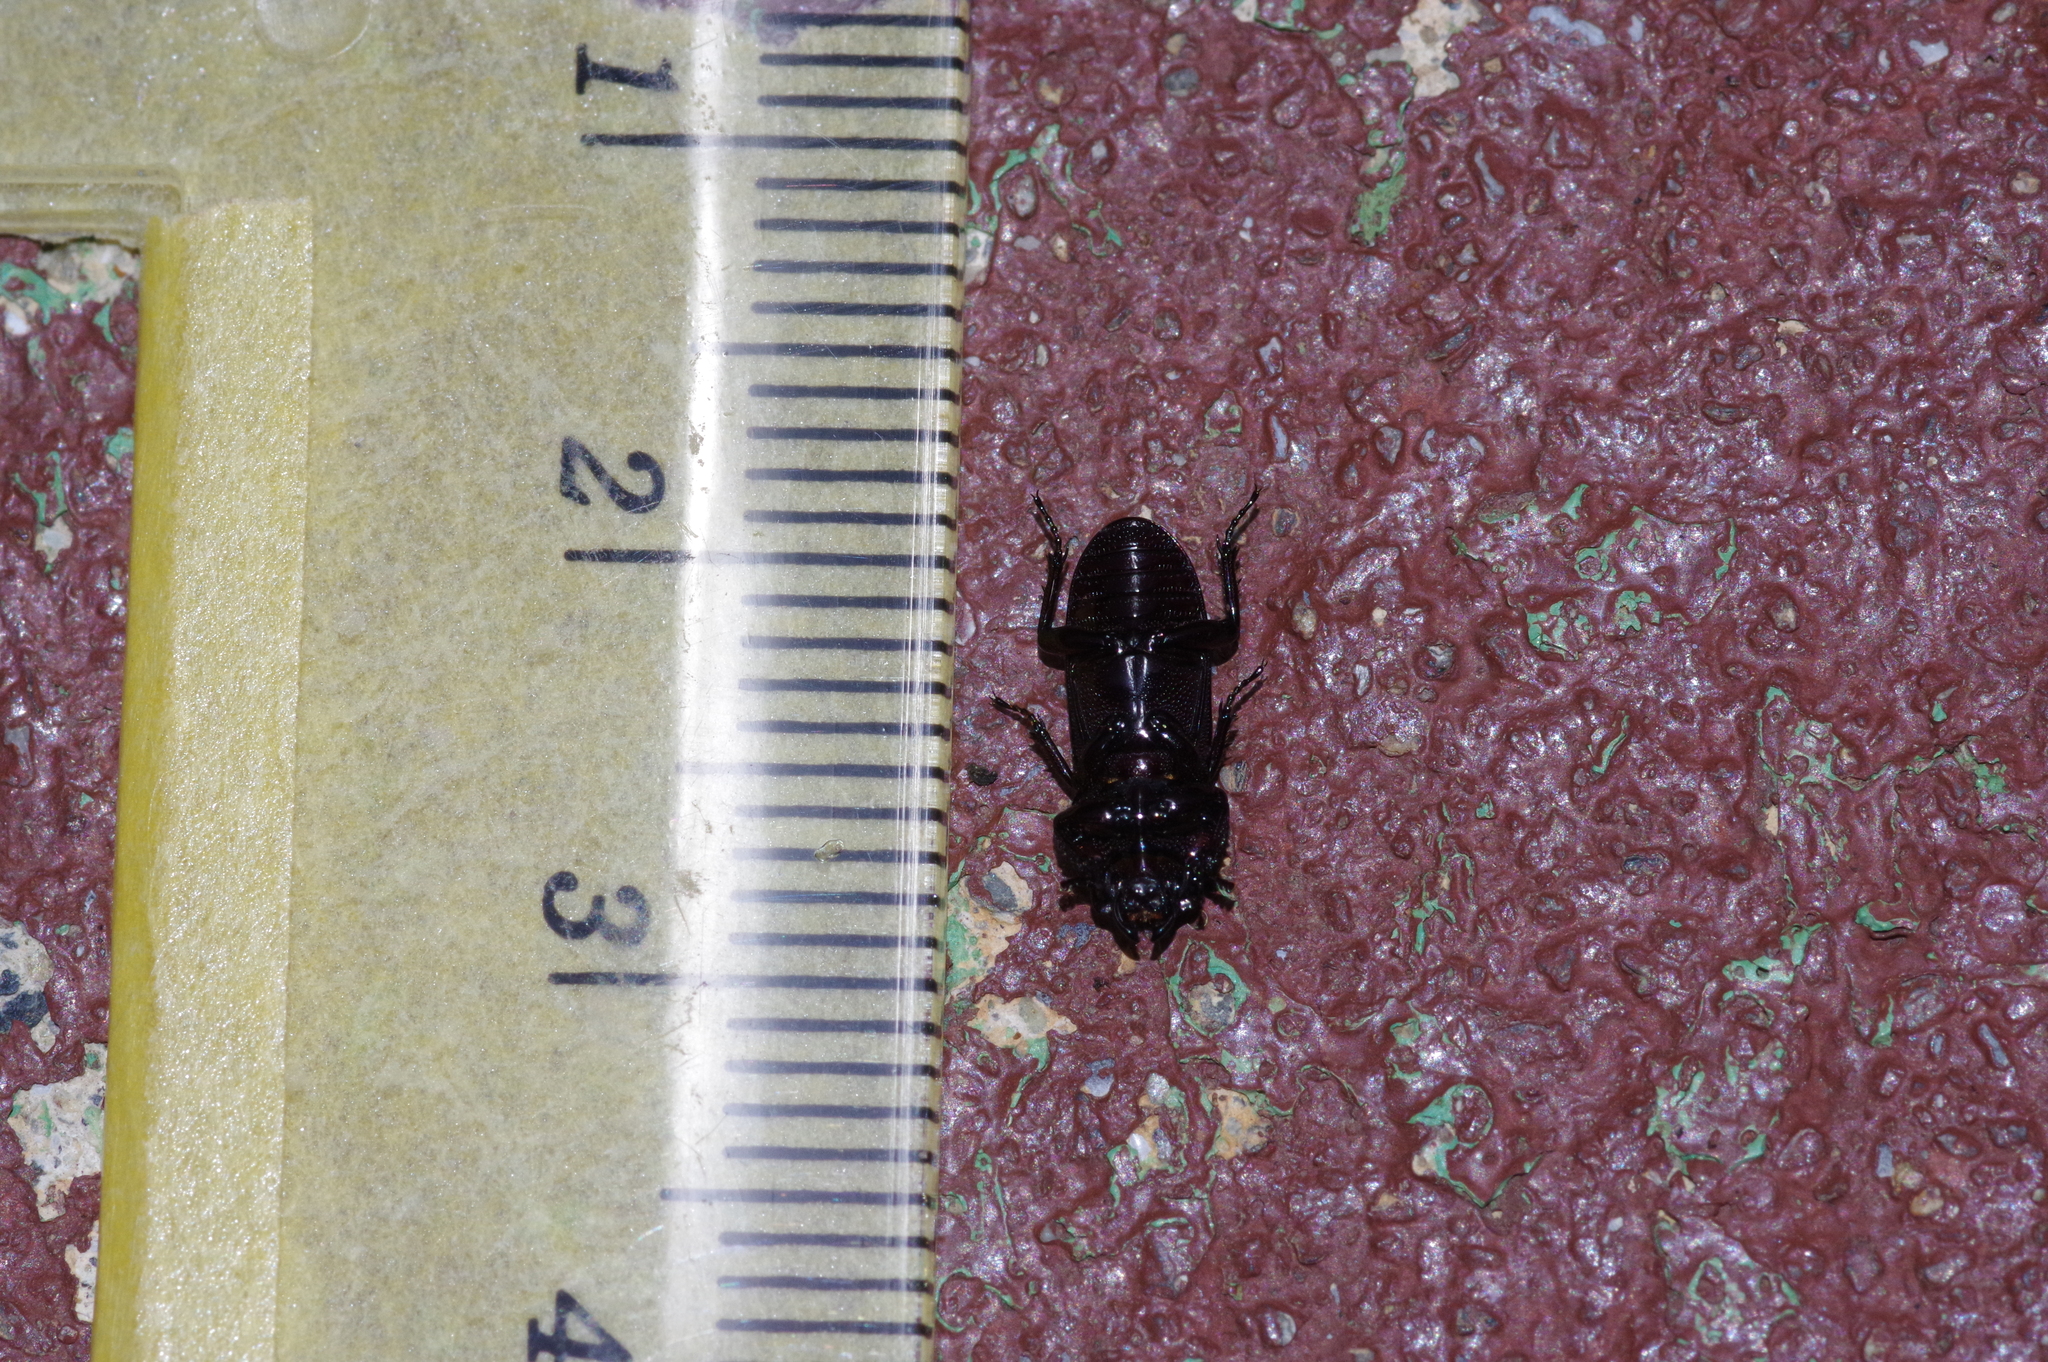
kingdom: Animalia
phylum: Arthropoda
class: Insecta
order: Coleoptera
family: Lucanidae
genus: Figulus
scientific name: Figulus punctatus
